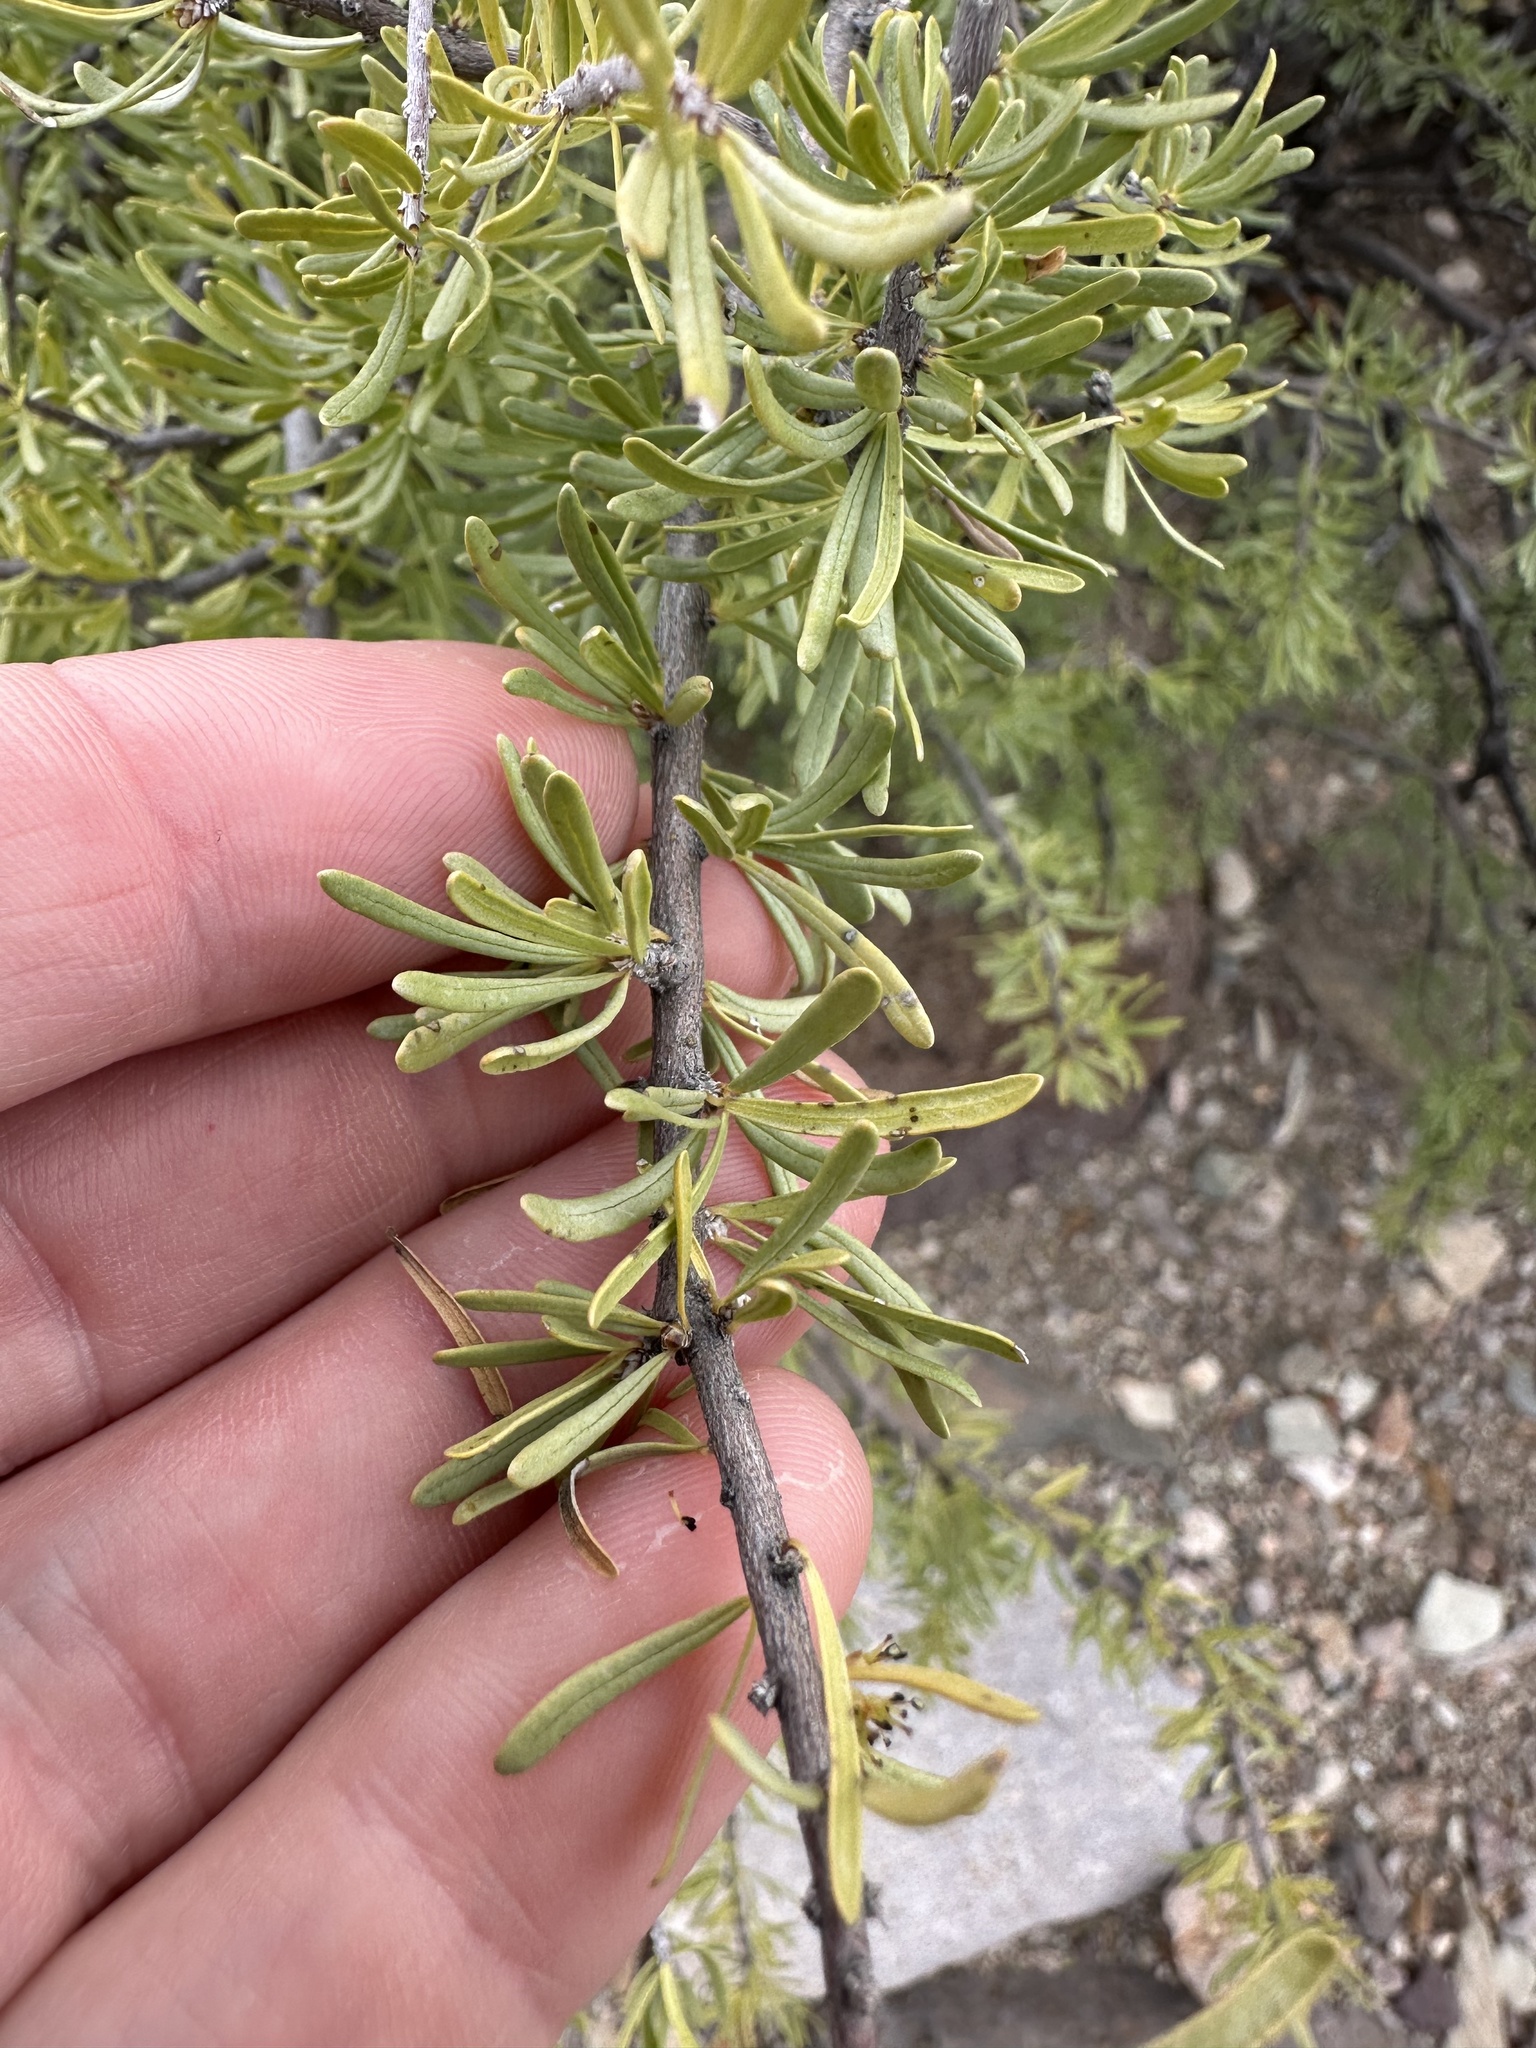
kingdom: Plantae
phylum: Tracheophyta
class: Magnoliopsida
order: Lamiales
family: Oleaceae
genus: Forestiera
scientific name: Forestiera angustifolia
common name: Elbowbush
